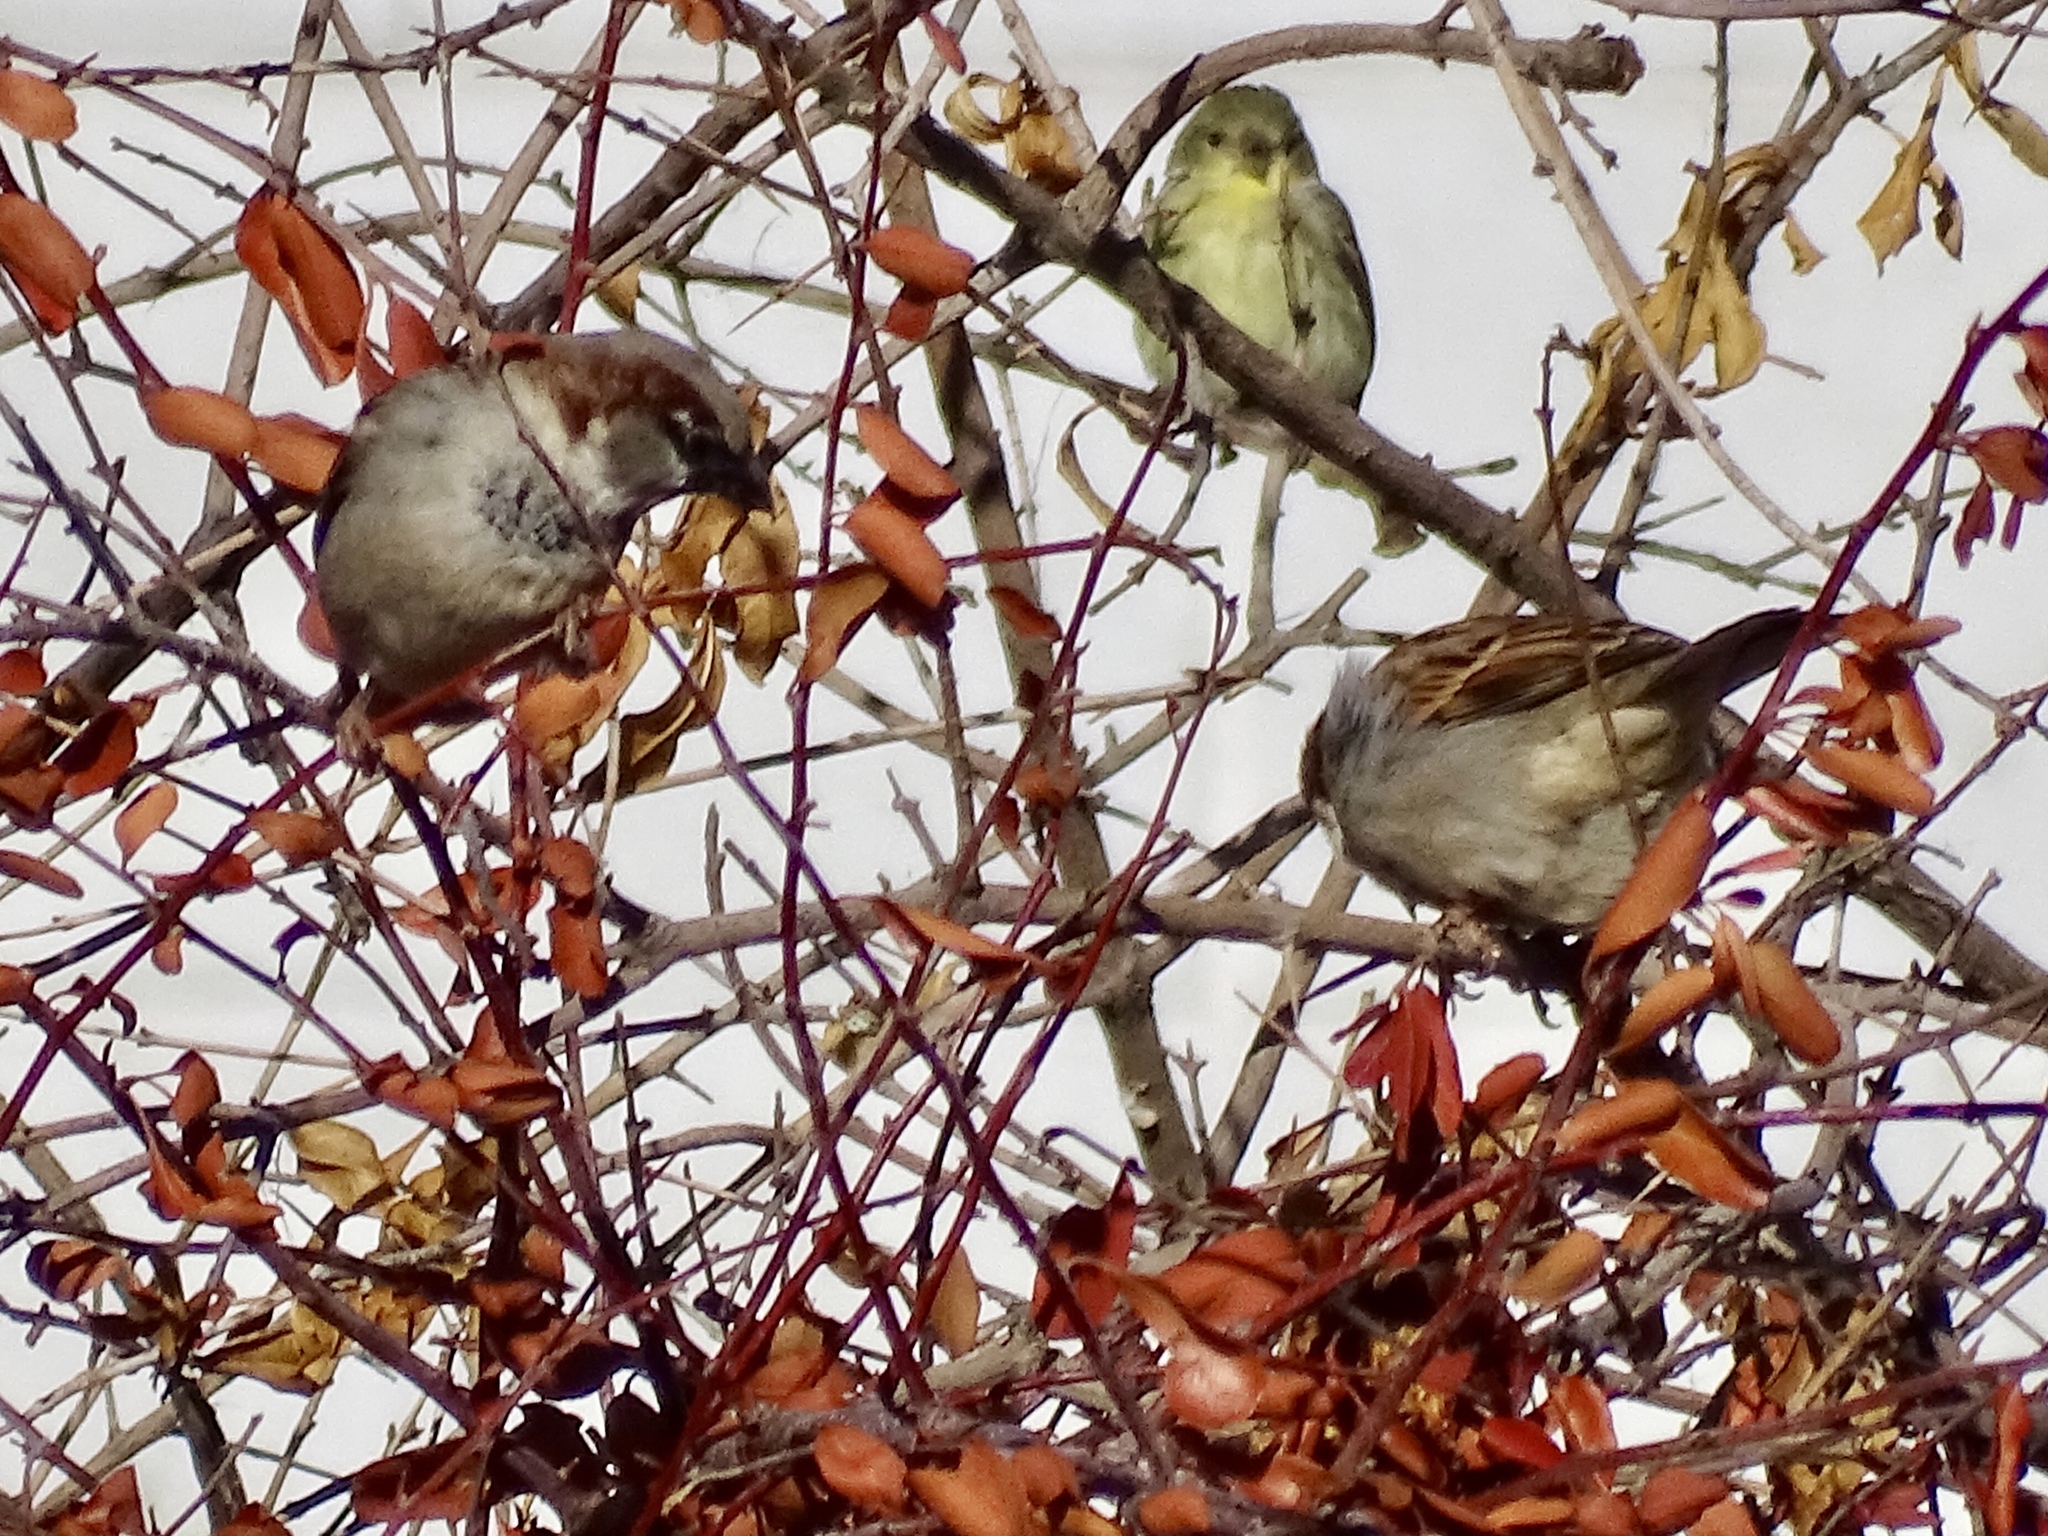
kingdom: Animalia
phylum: Chordata
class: Aves
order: Passeriformes
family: Passeridae
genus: Passer
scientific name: Passer domesticus
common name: House sparrow
